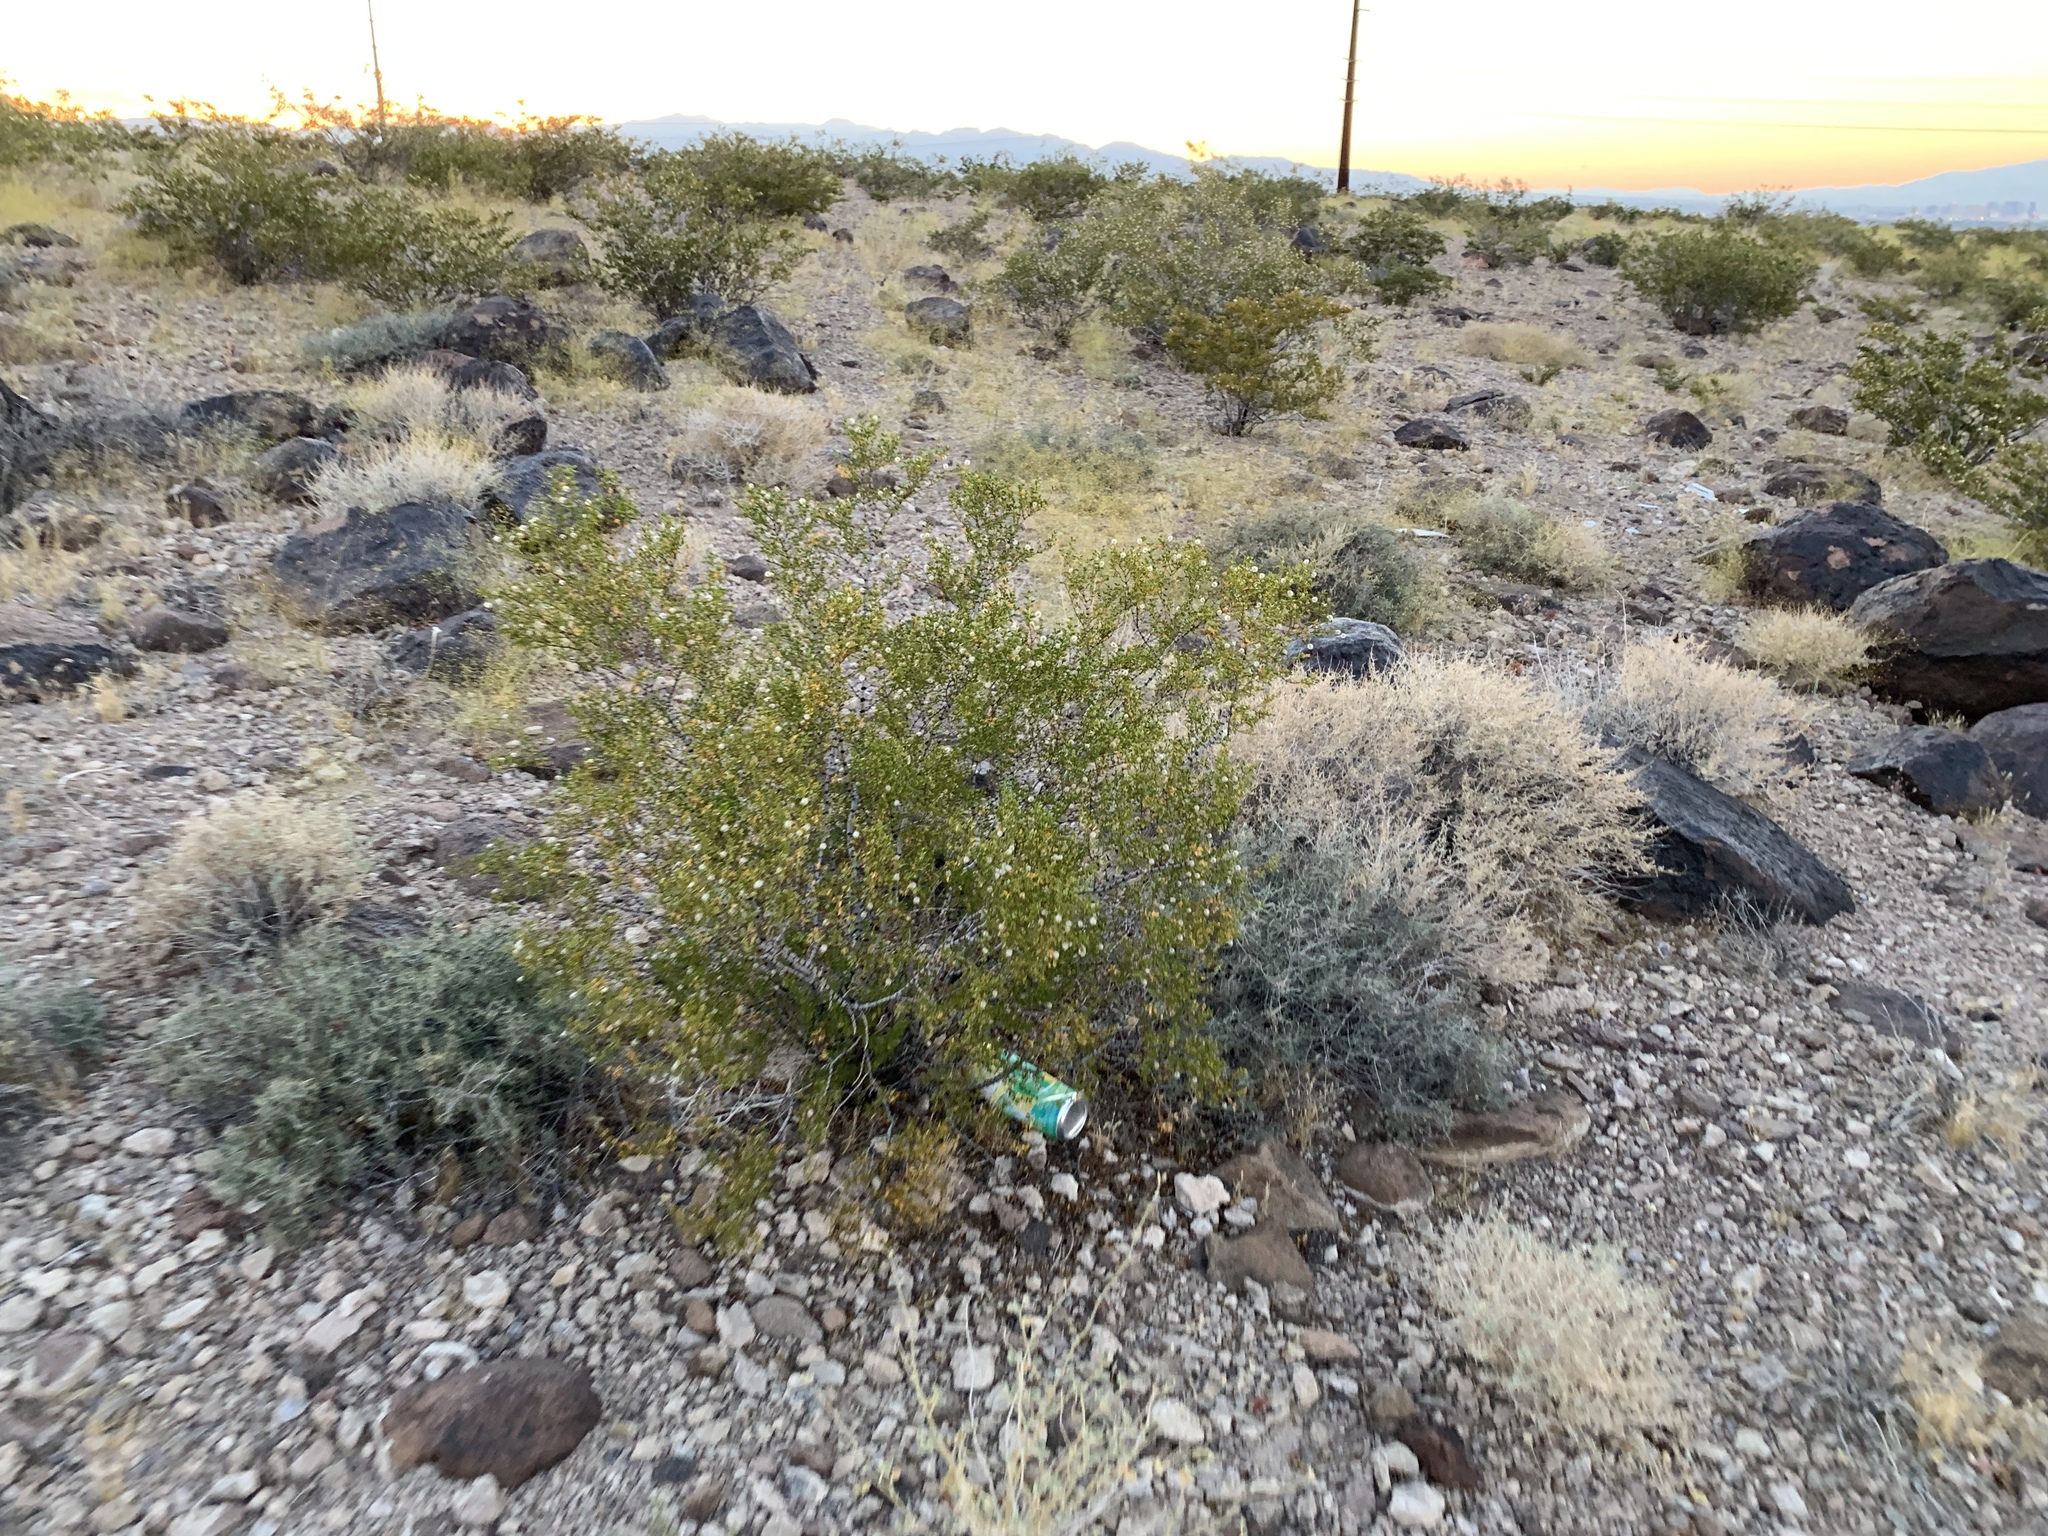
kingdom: Plantae
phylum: Tracheophyta
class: Magnoliopsida
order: Zygophyllales
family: Zygophyllaceae
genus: Larrea
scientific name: Larrea tridentata
